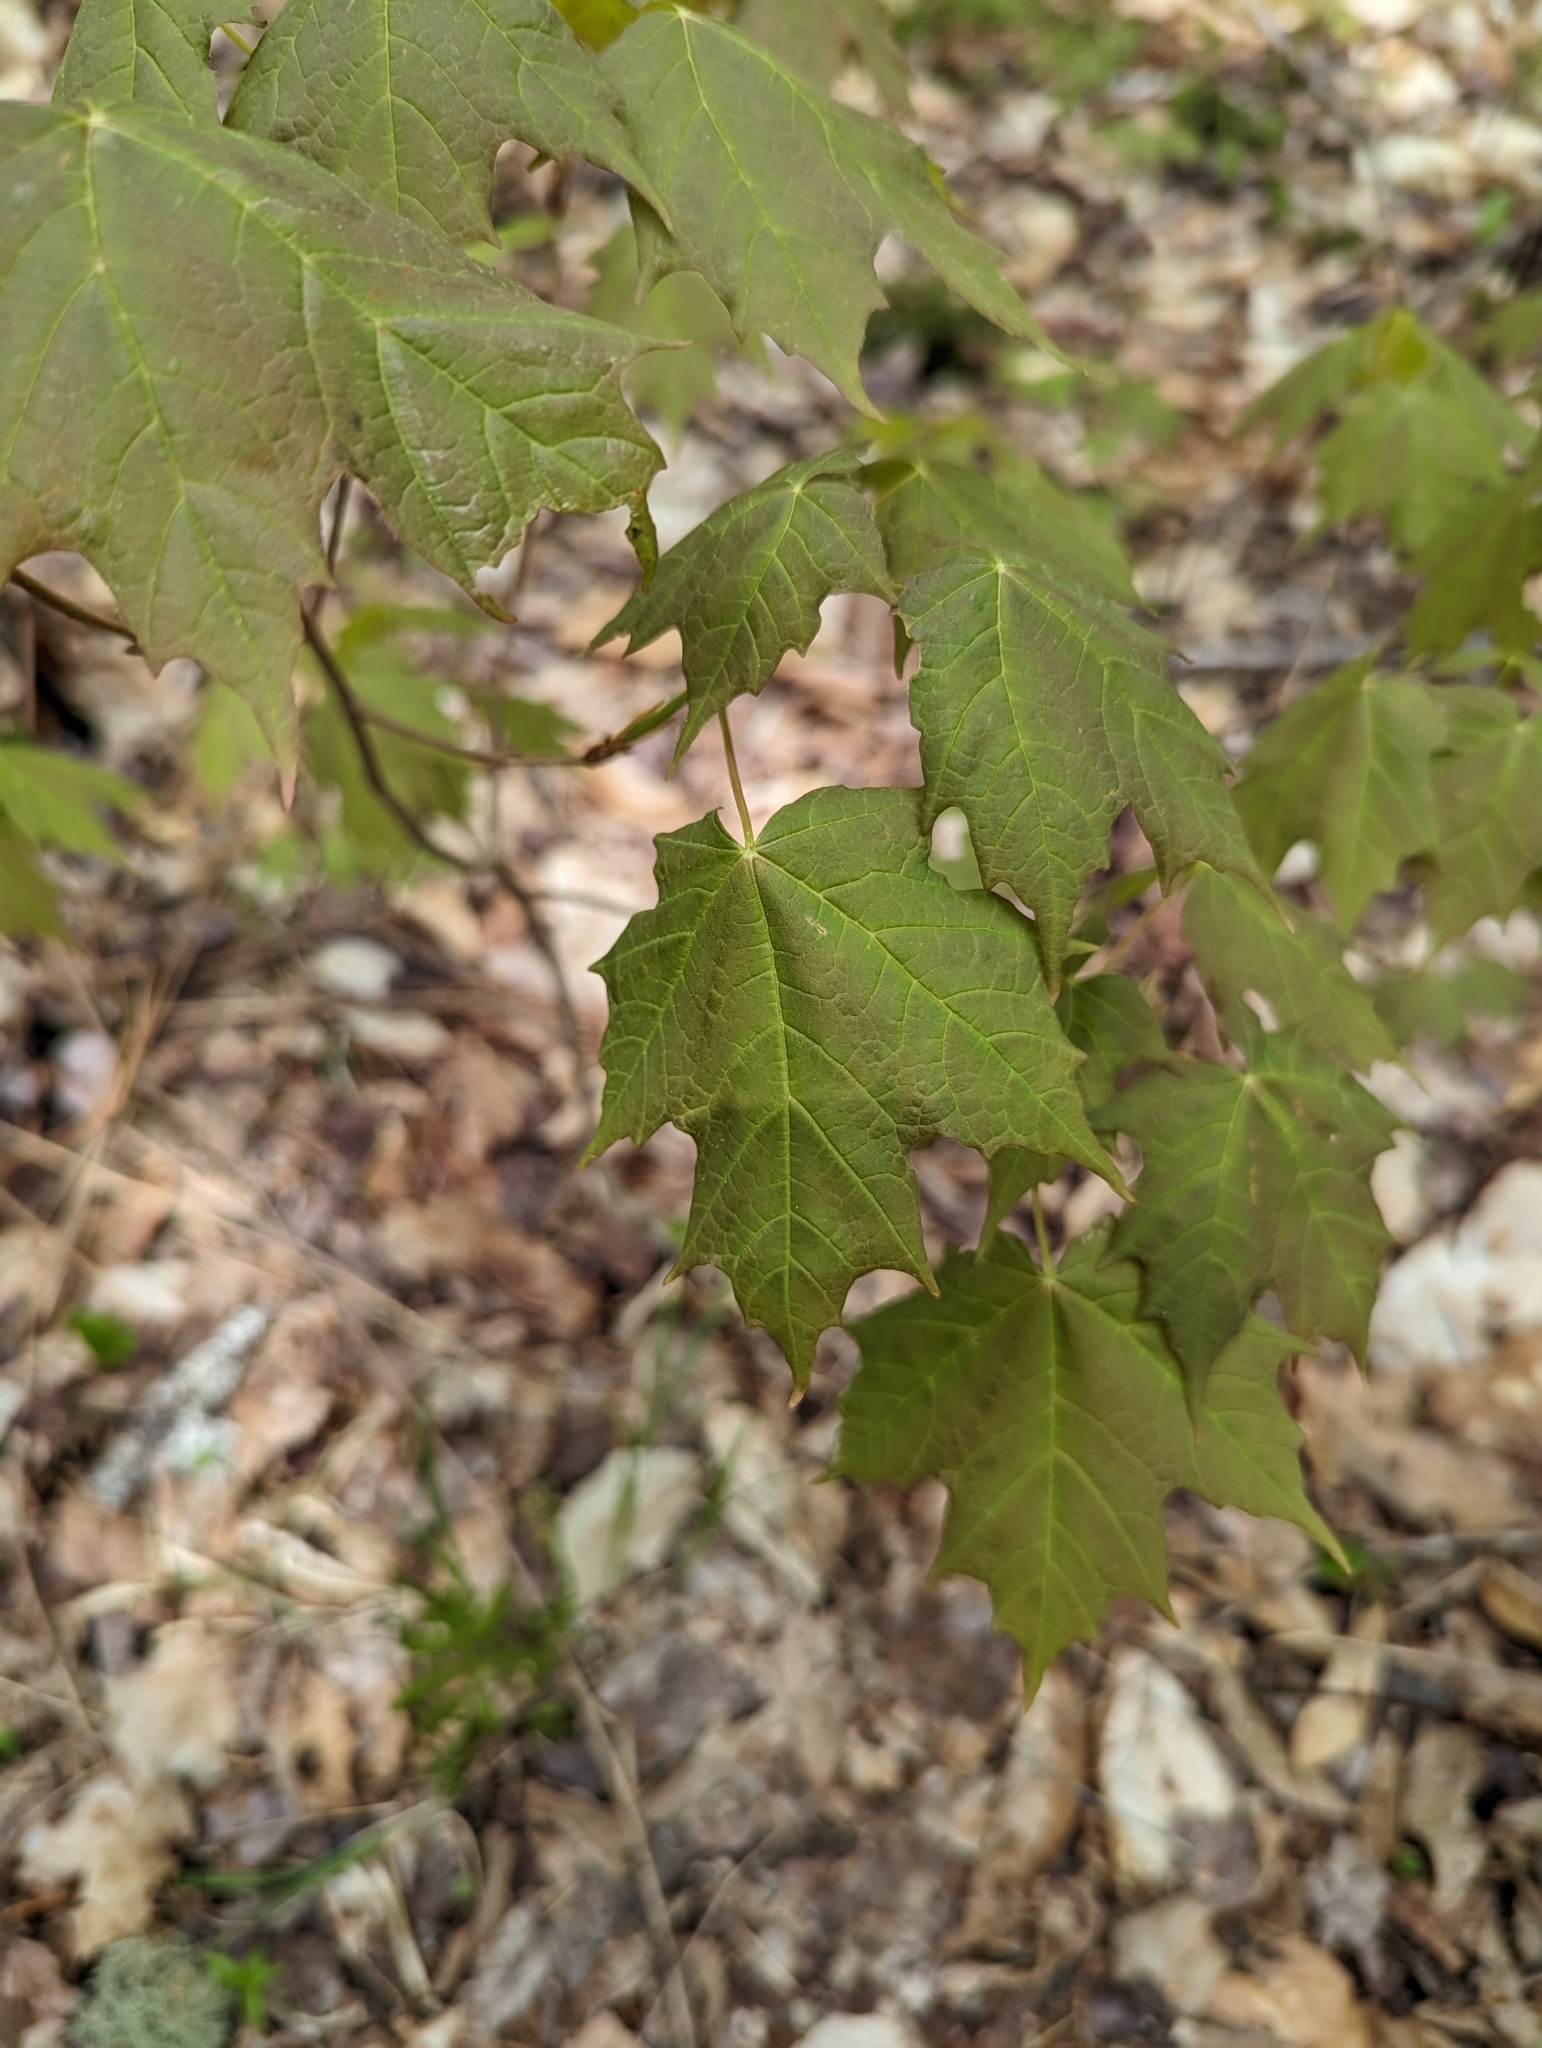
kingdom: Plantae
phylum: Tracheophyta
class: Magnoliopsida
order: Sapindales
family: Sapindaceae
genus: Acer
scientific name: Acer saccharum
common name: Sugar maple
